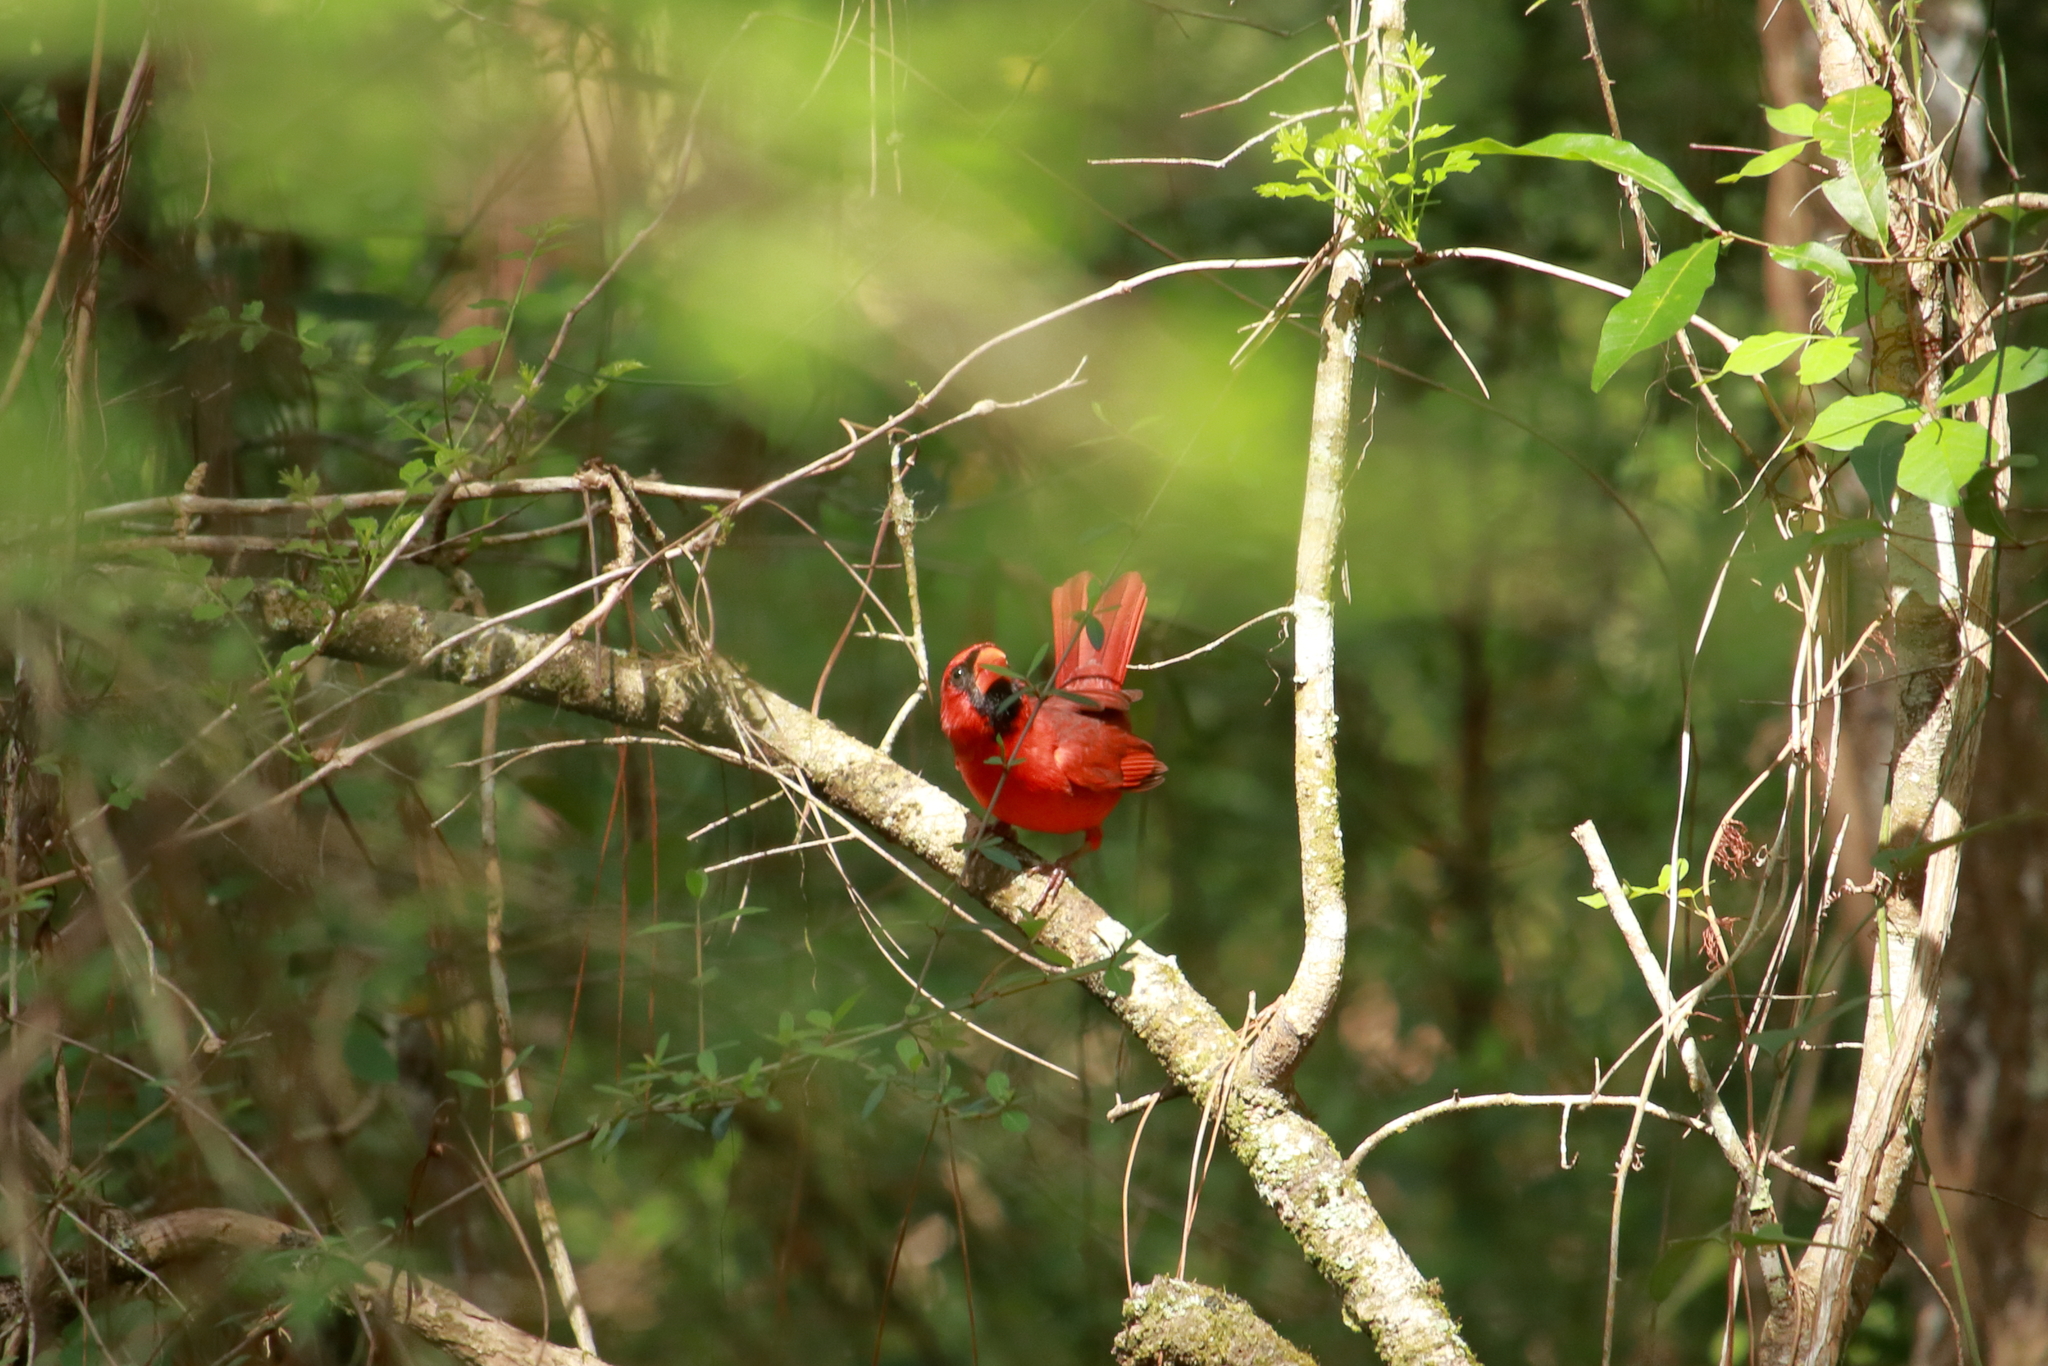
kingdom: Animalia
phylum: Chordata
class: Aves
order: Passeriformes
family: Cardinalidae
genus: Cardinalis
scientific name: Cardinalis cardinalis
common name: Northern cardinal
